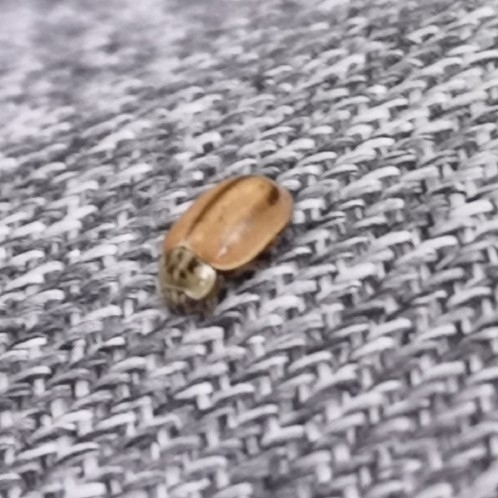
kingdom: Animalia
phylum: Arthropoda
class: Insecta
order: Coleoptera
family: Coccinellidae
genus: Aphidecta
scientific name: Aphidecta obliterata
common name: Larch ladybird
